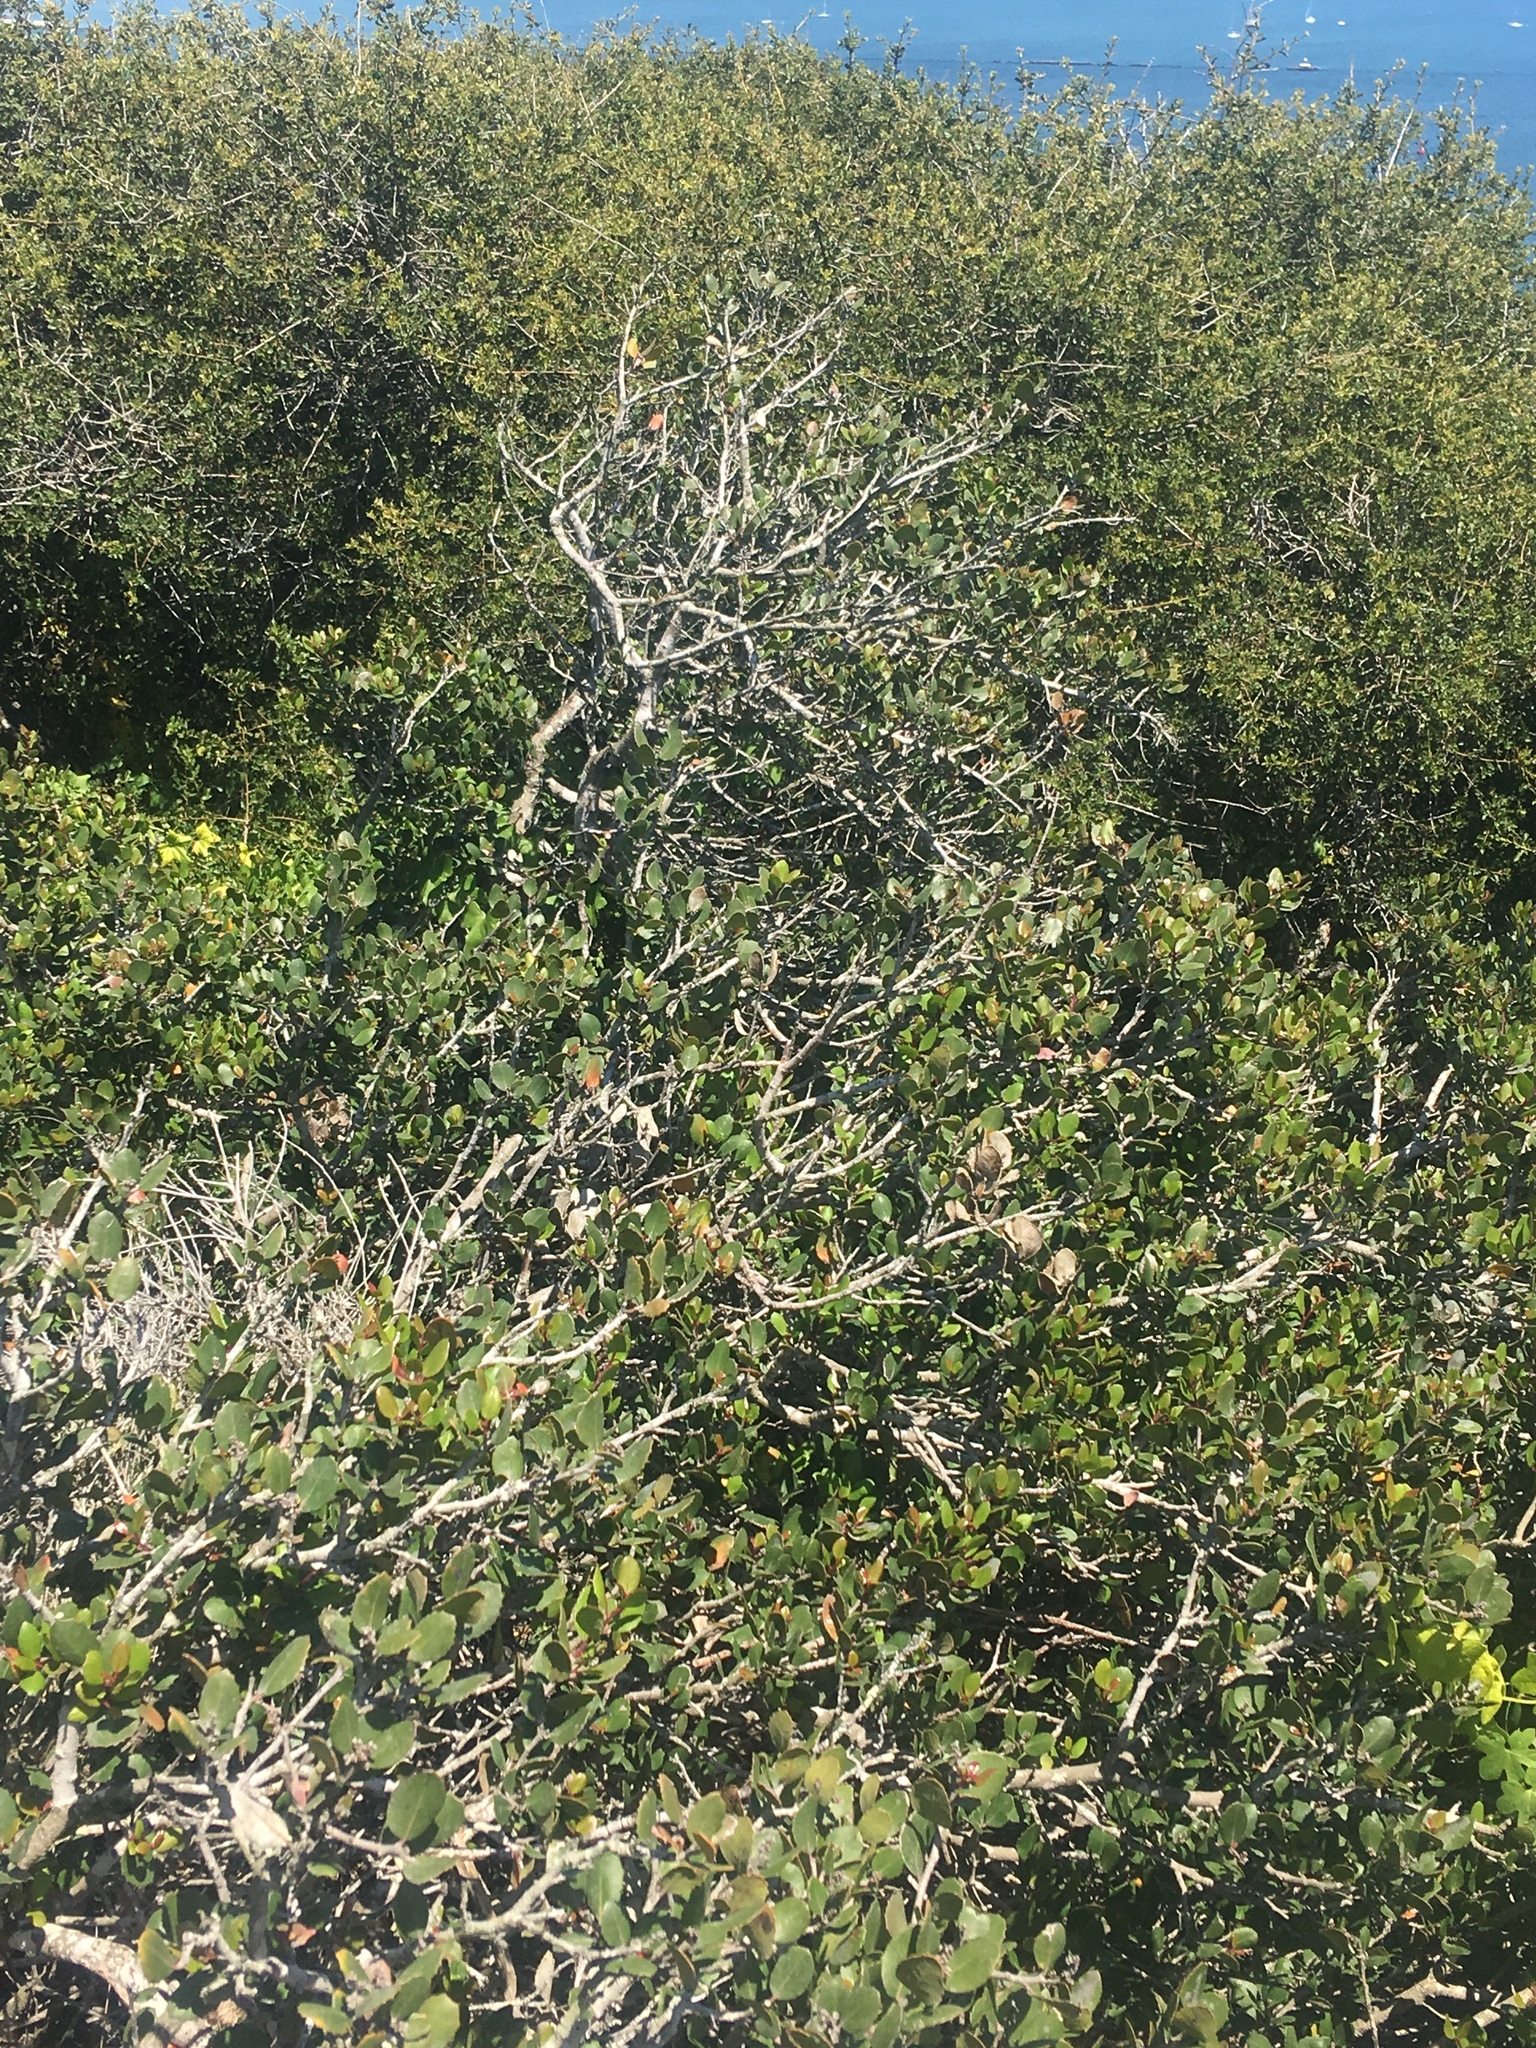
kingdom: Plantae
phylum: Tracheophyta
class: Magnoliopsida
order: Sapindales
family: Anacardiaceae
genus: Rhus
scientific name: Rhus integrifolia
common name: Lemonade sumac
